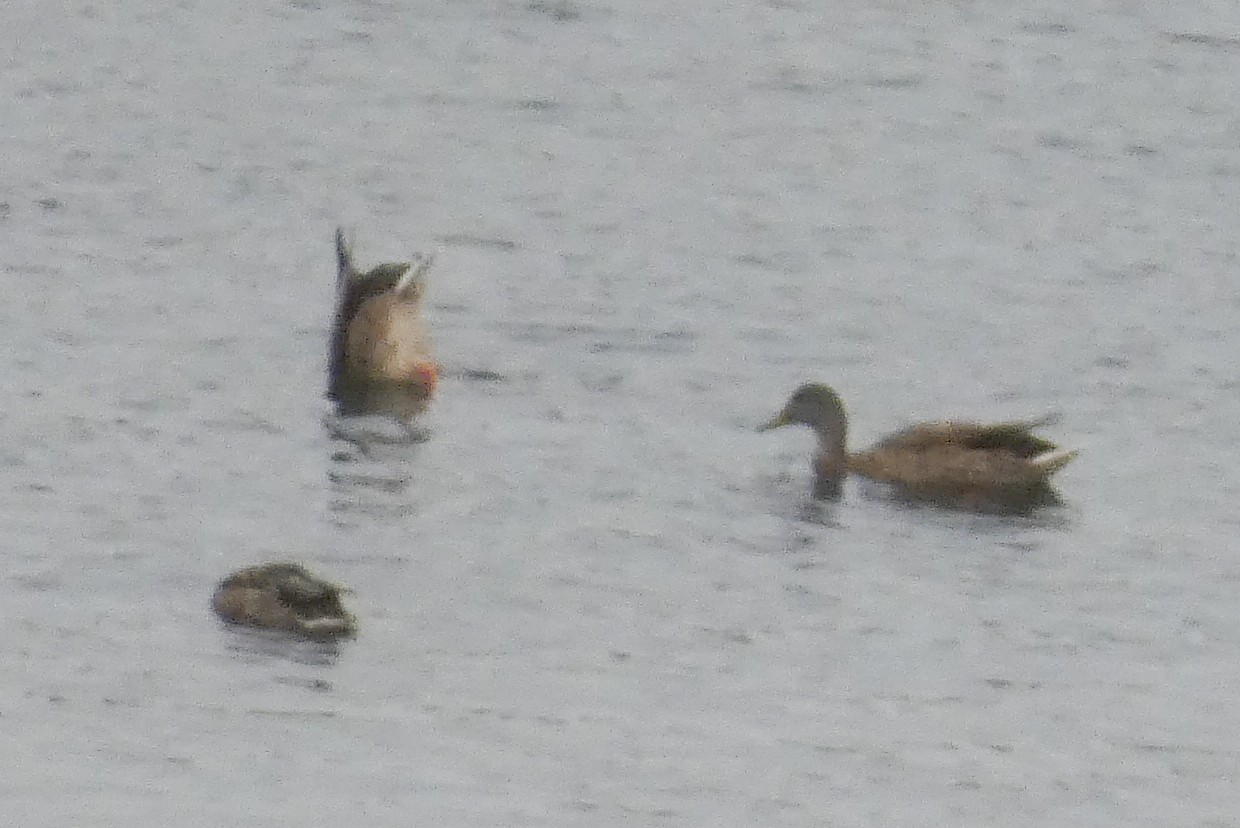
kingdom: Animalia
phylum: Chordata
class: Aves
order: Anseriformes
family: Anatidae
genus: Anas
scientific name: Anas platyrhynchos
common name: Mallard
